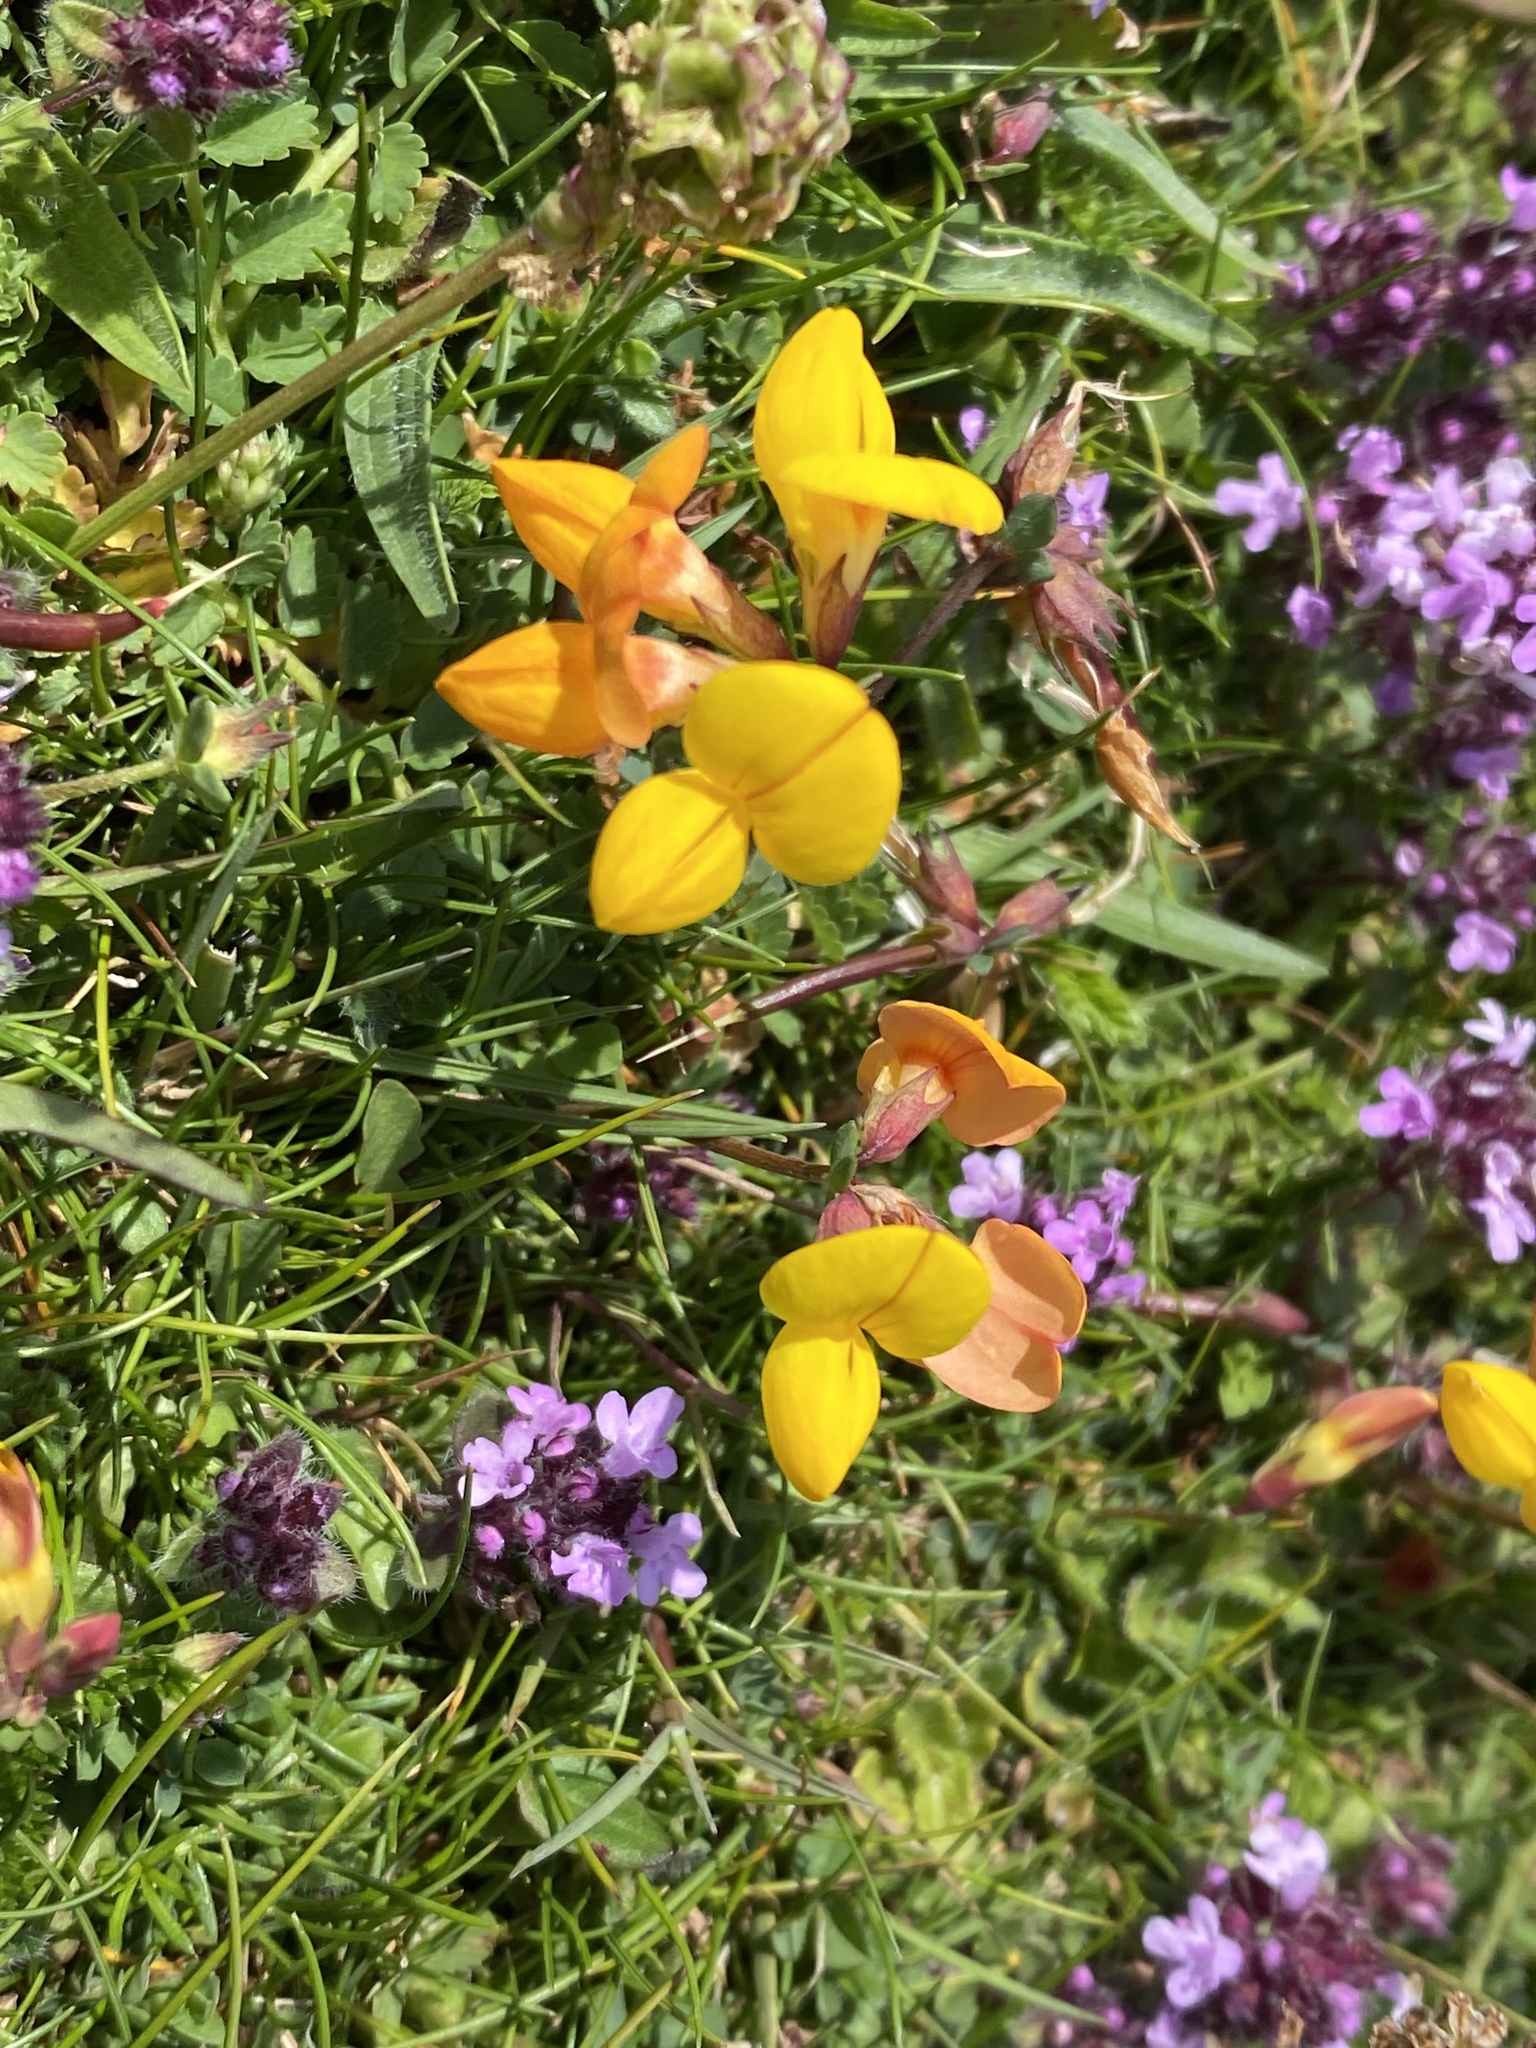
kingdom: Plantae
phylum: Tracheophyta
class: Magnoliopsida
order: Fabales
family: Fabaceae
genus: Lotus
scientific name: Lotus corniculatus
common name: Common bird's-foot-trefoil
